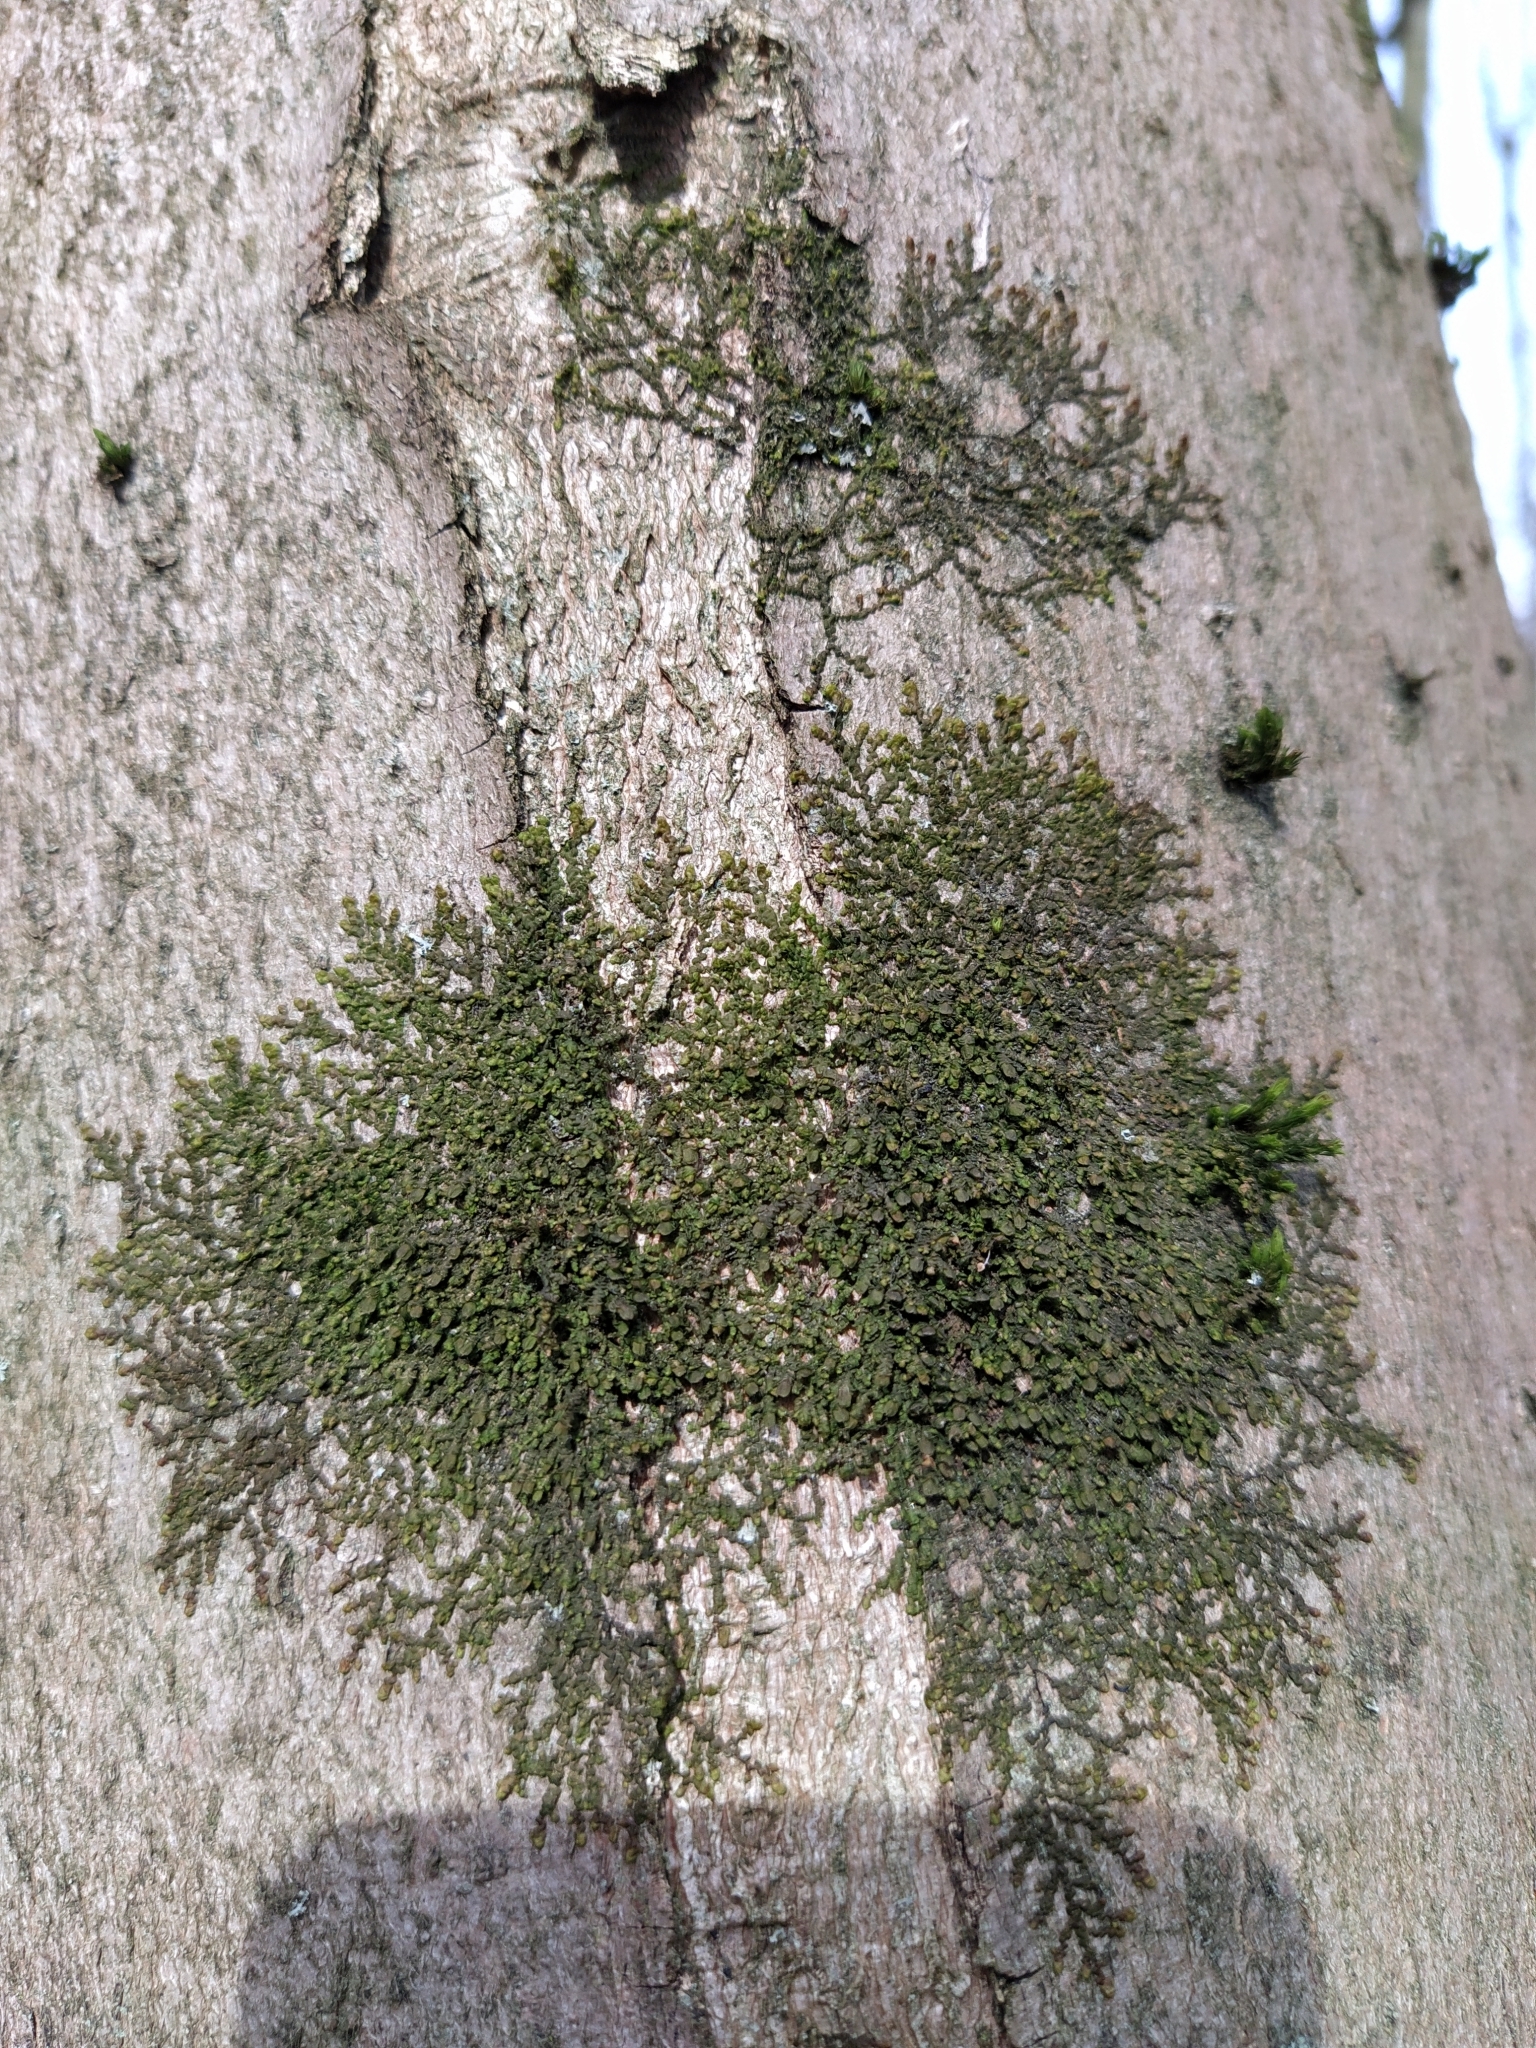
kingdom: Plantae
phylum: Marchantiophyta
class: Jungermanniopsida
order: Porellales
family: Frullaniaceae
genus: Frullania
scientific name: Frullania dilatata
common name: Dilated scalewort
